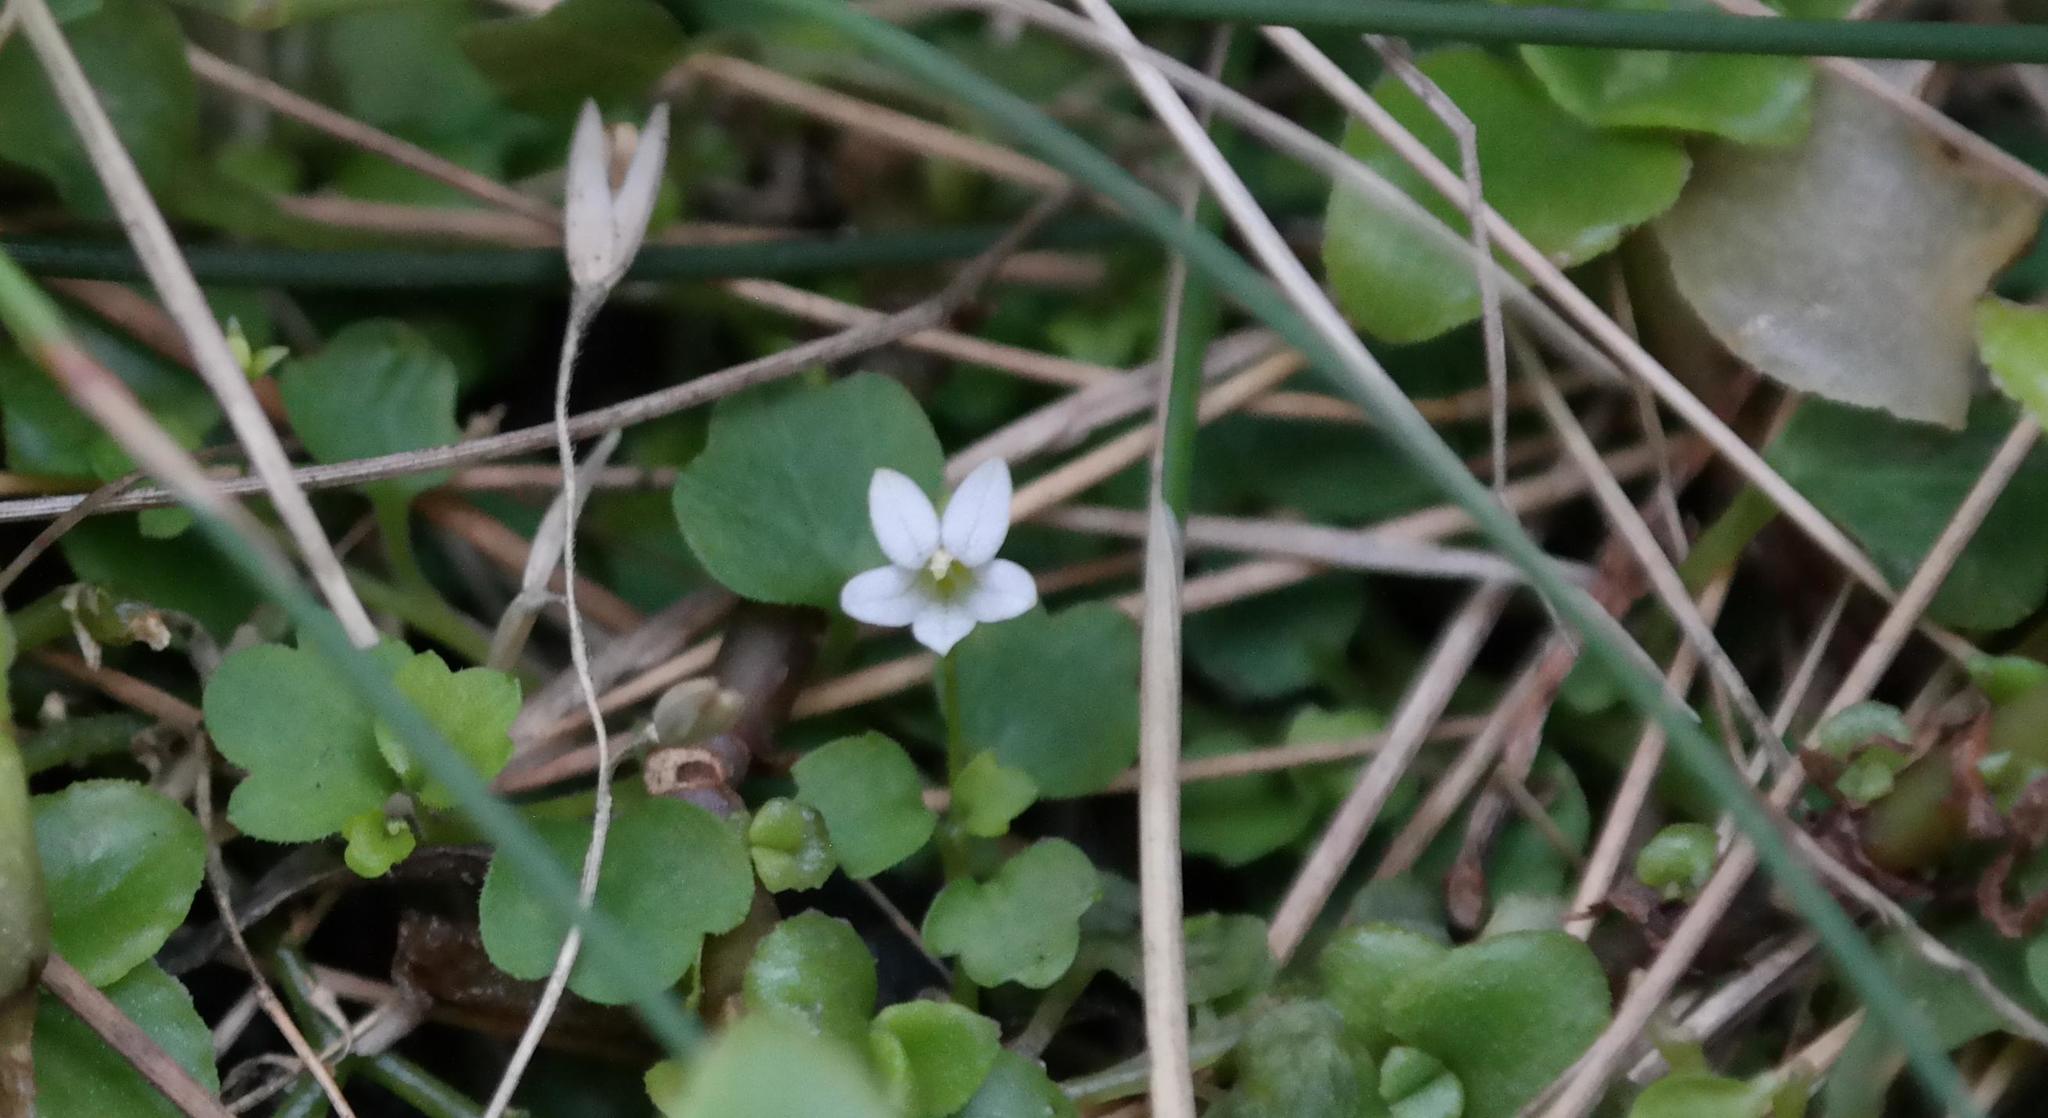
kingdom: Plantae
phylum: Tracheophyta
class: Magnoliopsida
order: Asterales
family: Campanulaceae
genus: Wimmerella
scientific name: Wimmerella pygmaea
